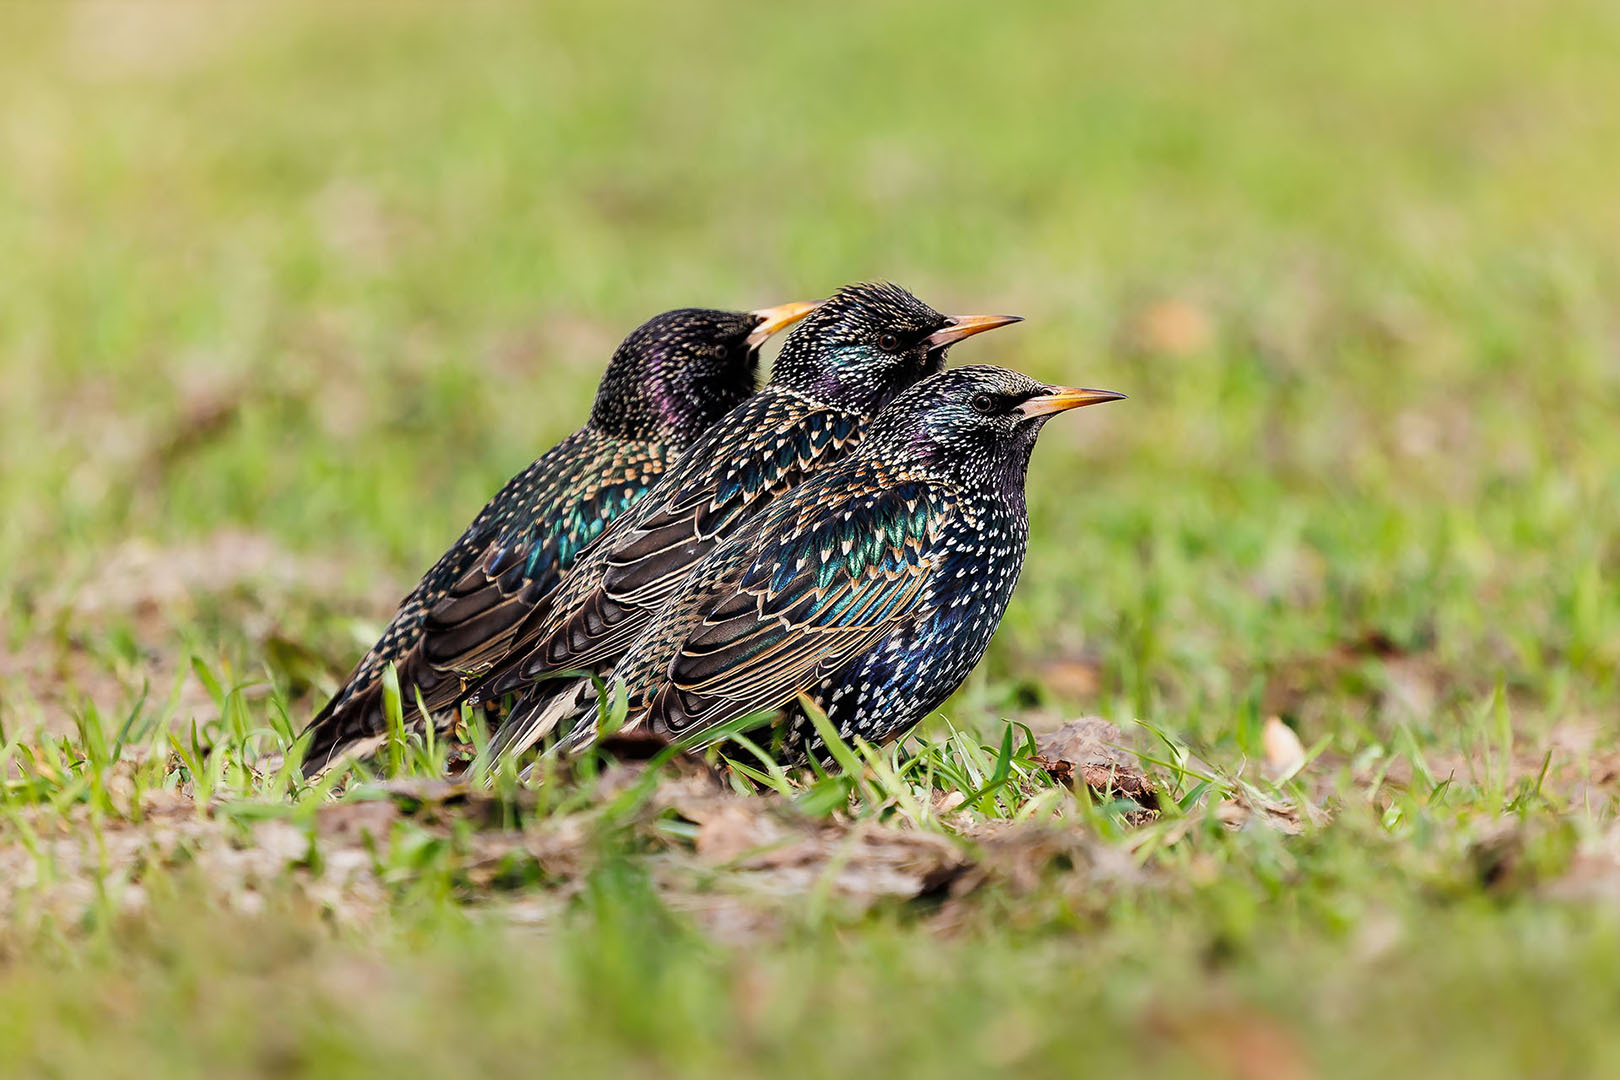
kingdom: Animalia
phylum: Chordata
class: Aves
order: Passeriformes
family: Sturnidae
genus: Sturnus
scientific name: Sturnus vulgaris
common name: Common starling
